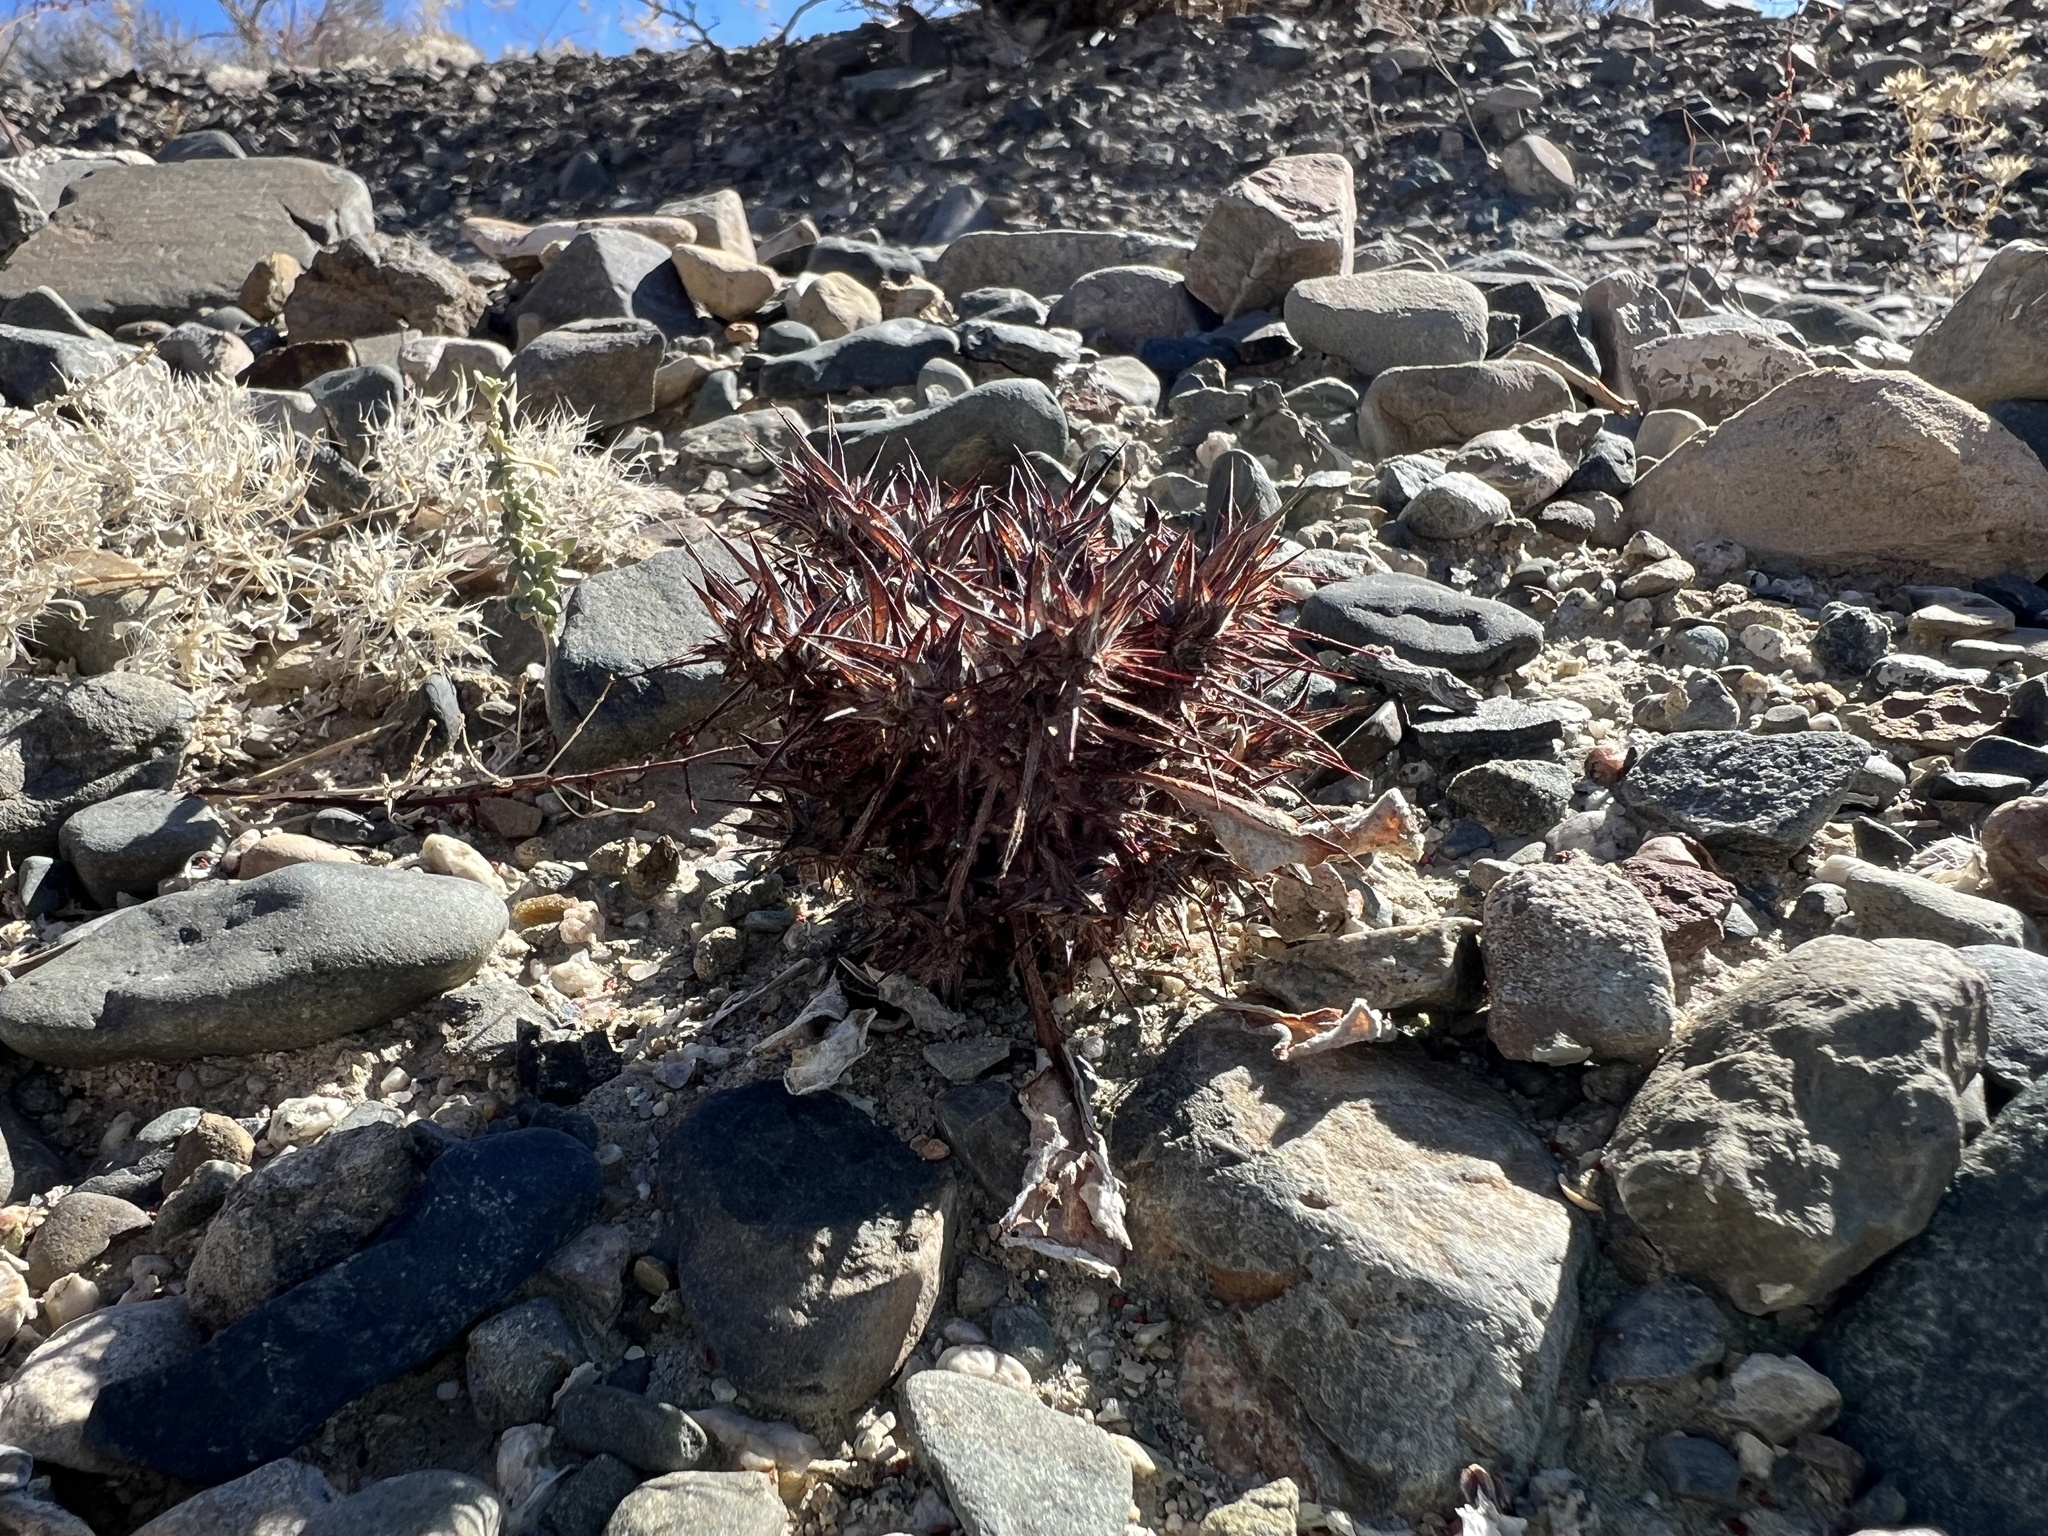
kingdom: Plantae
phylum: Tracheophyta
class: Magnoliopsida
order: Caryophyllales
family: Polygonaceae
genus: Chorizanthe
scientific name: Chorizanthe rigida
